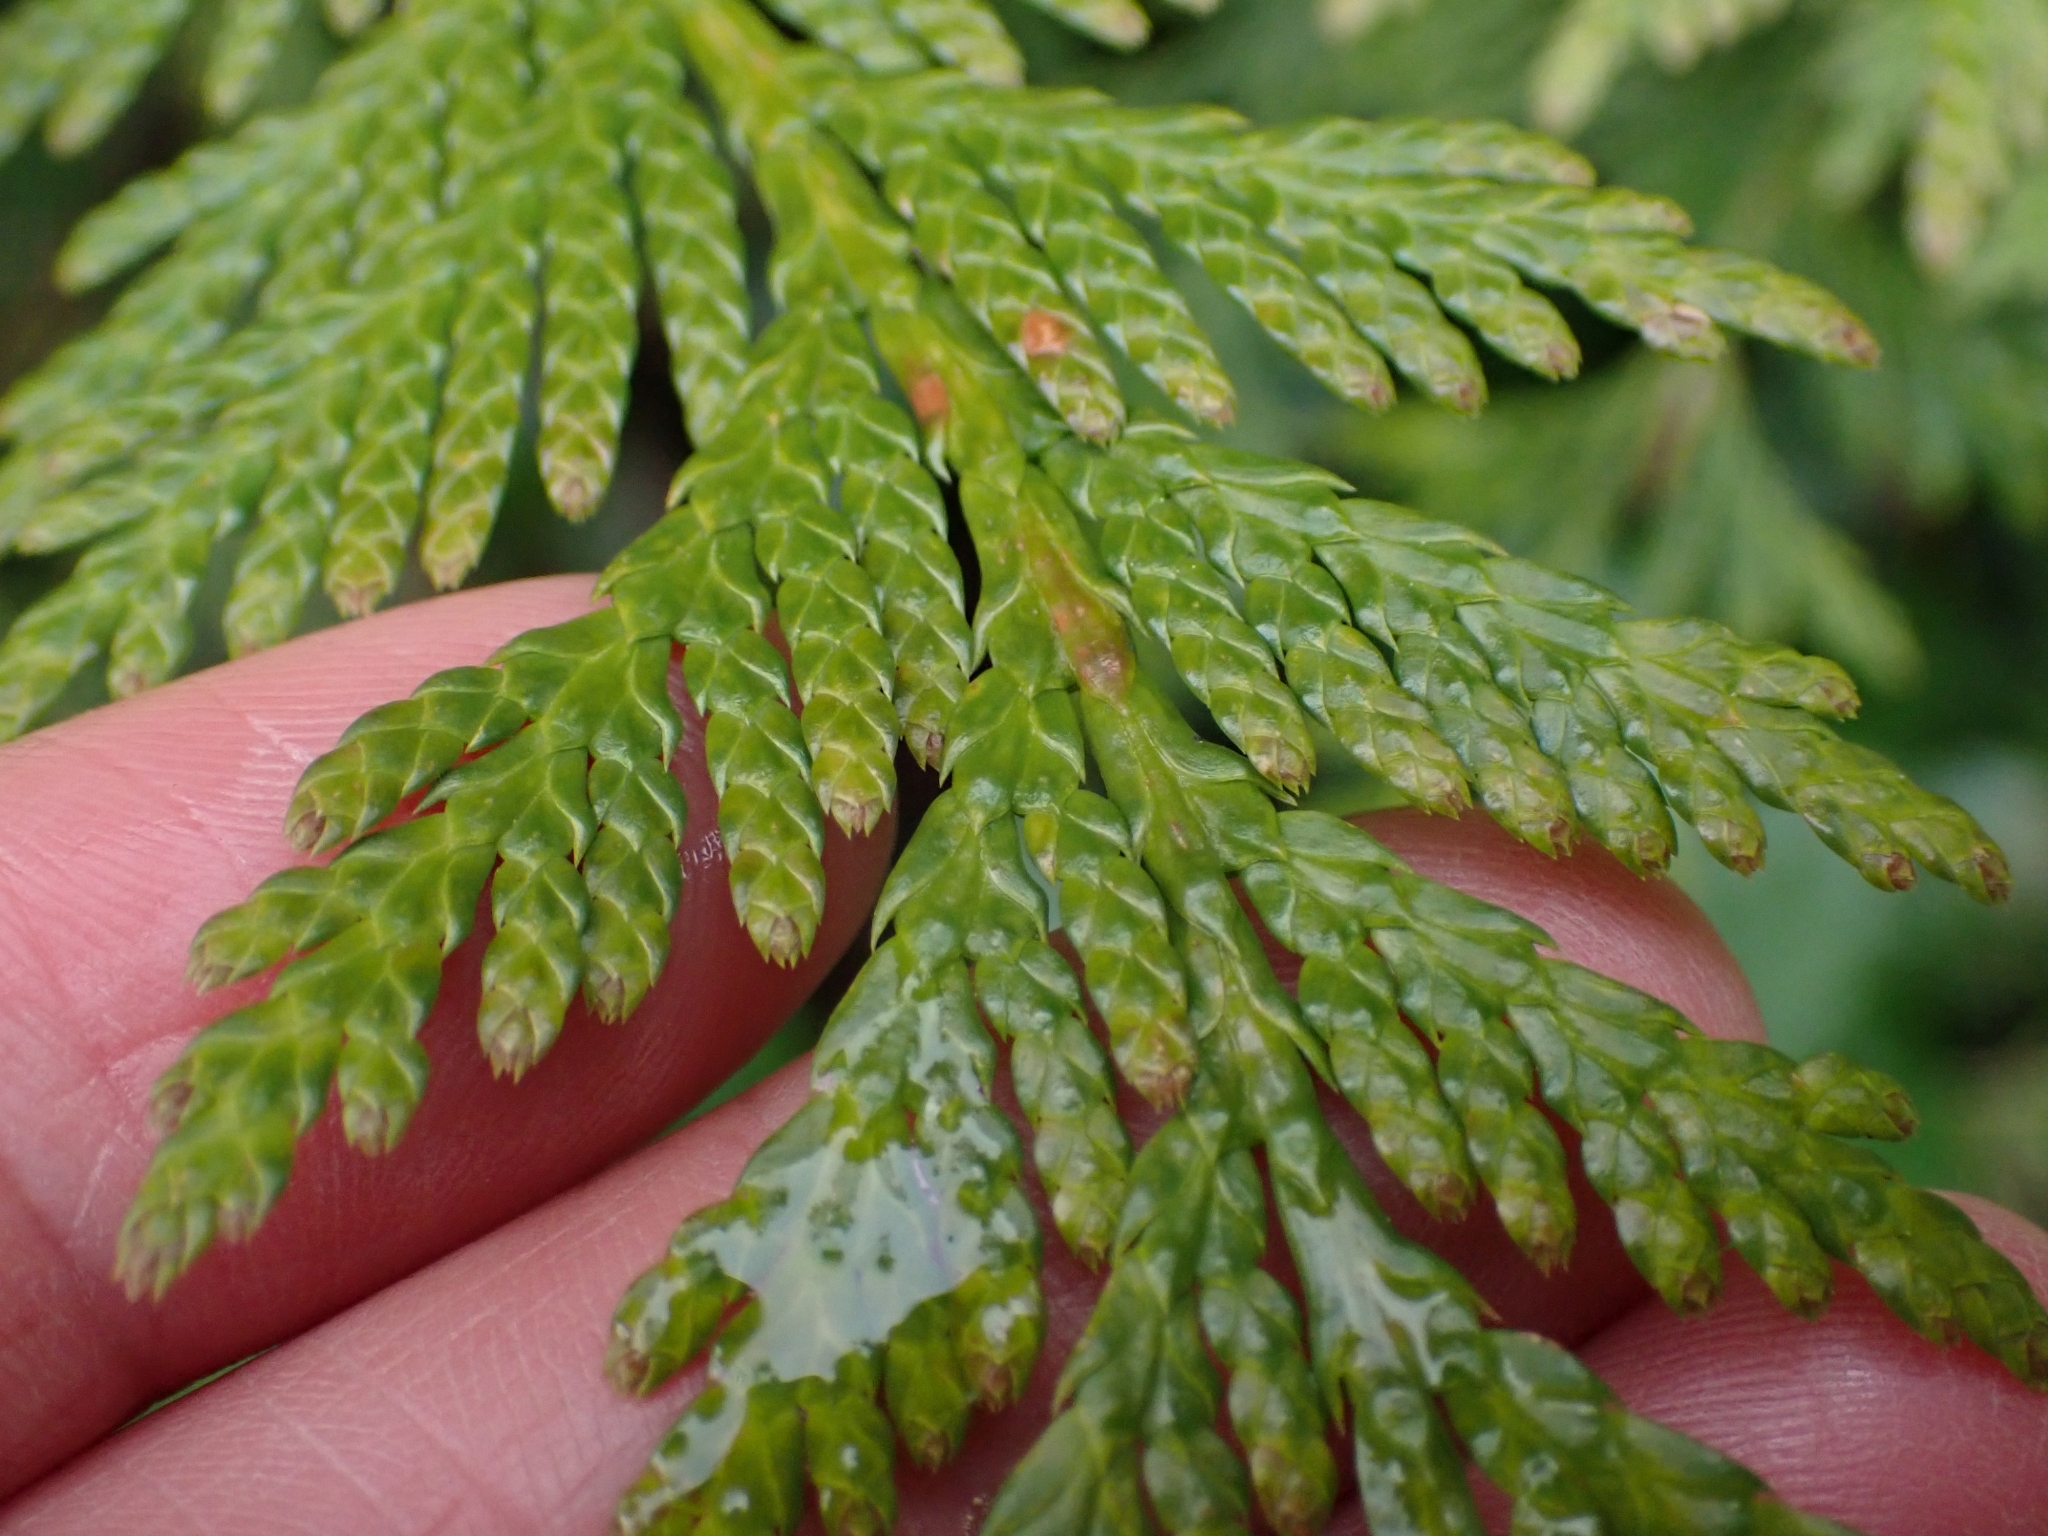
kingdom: Plantae
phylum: Tracheophyta
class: Pinopsida
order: Pinales
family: Cupressaceae
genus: Thuja
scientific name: Thuja plicata
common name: Western red-cedar
